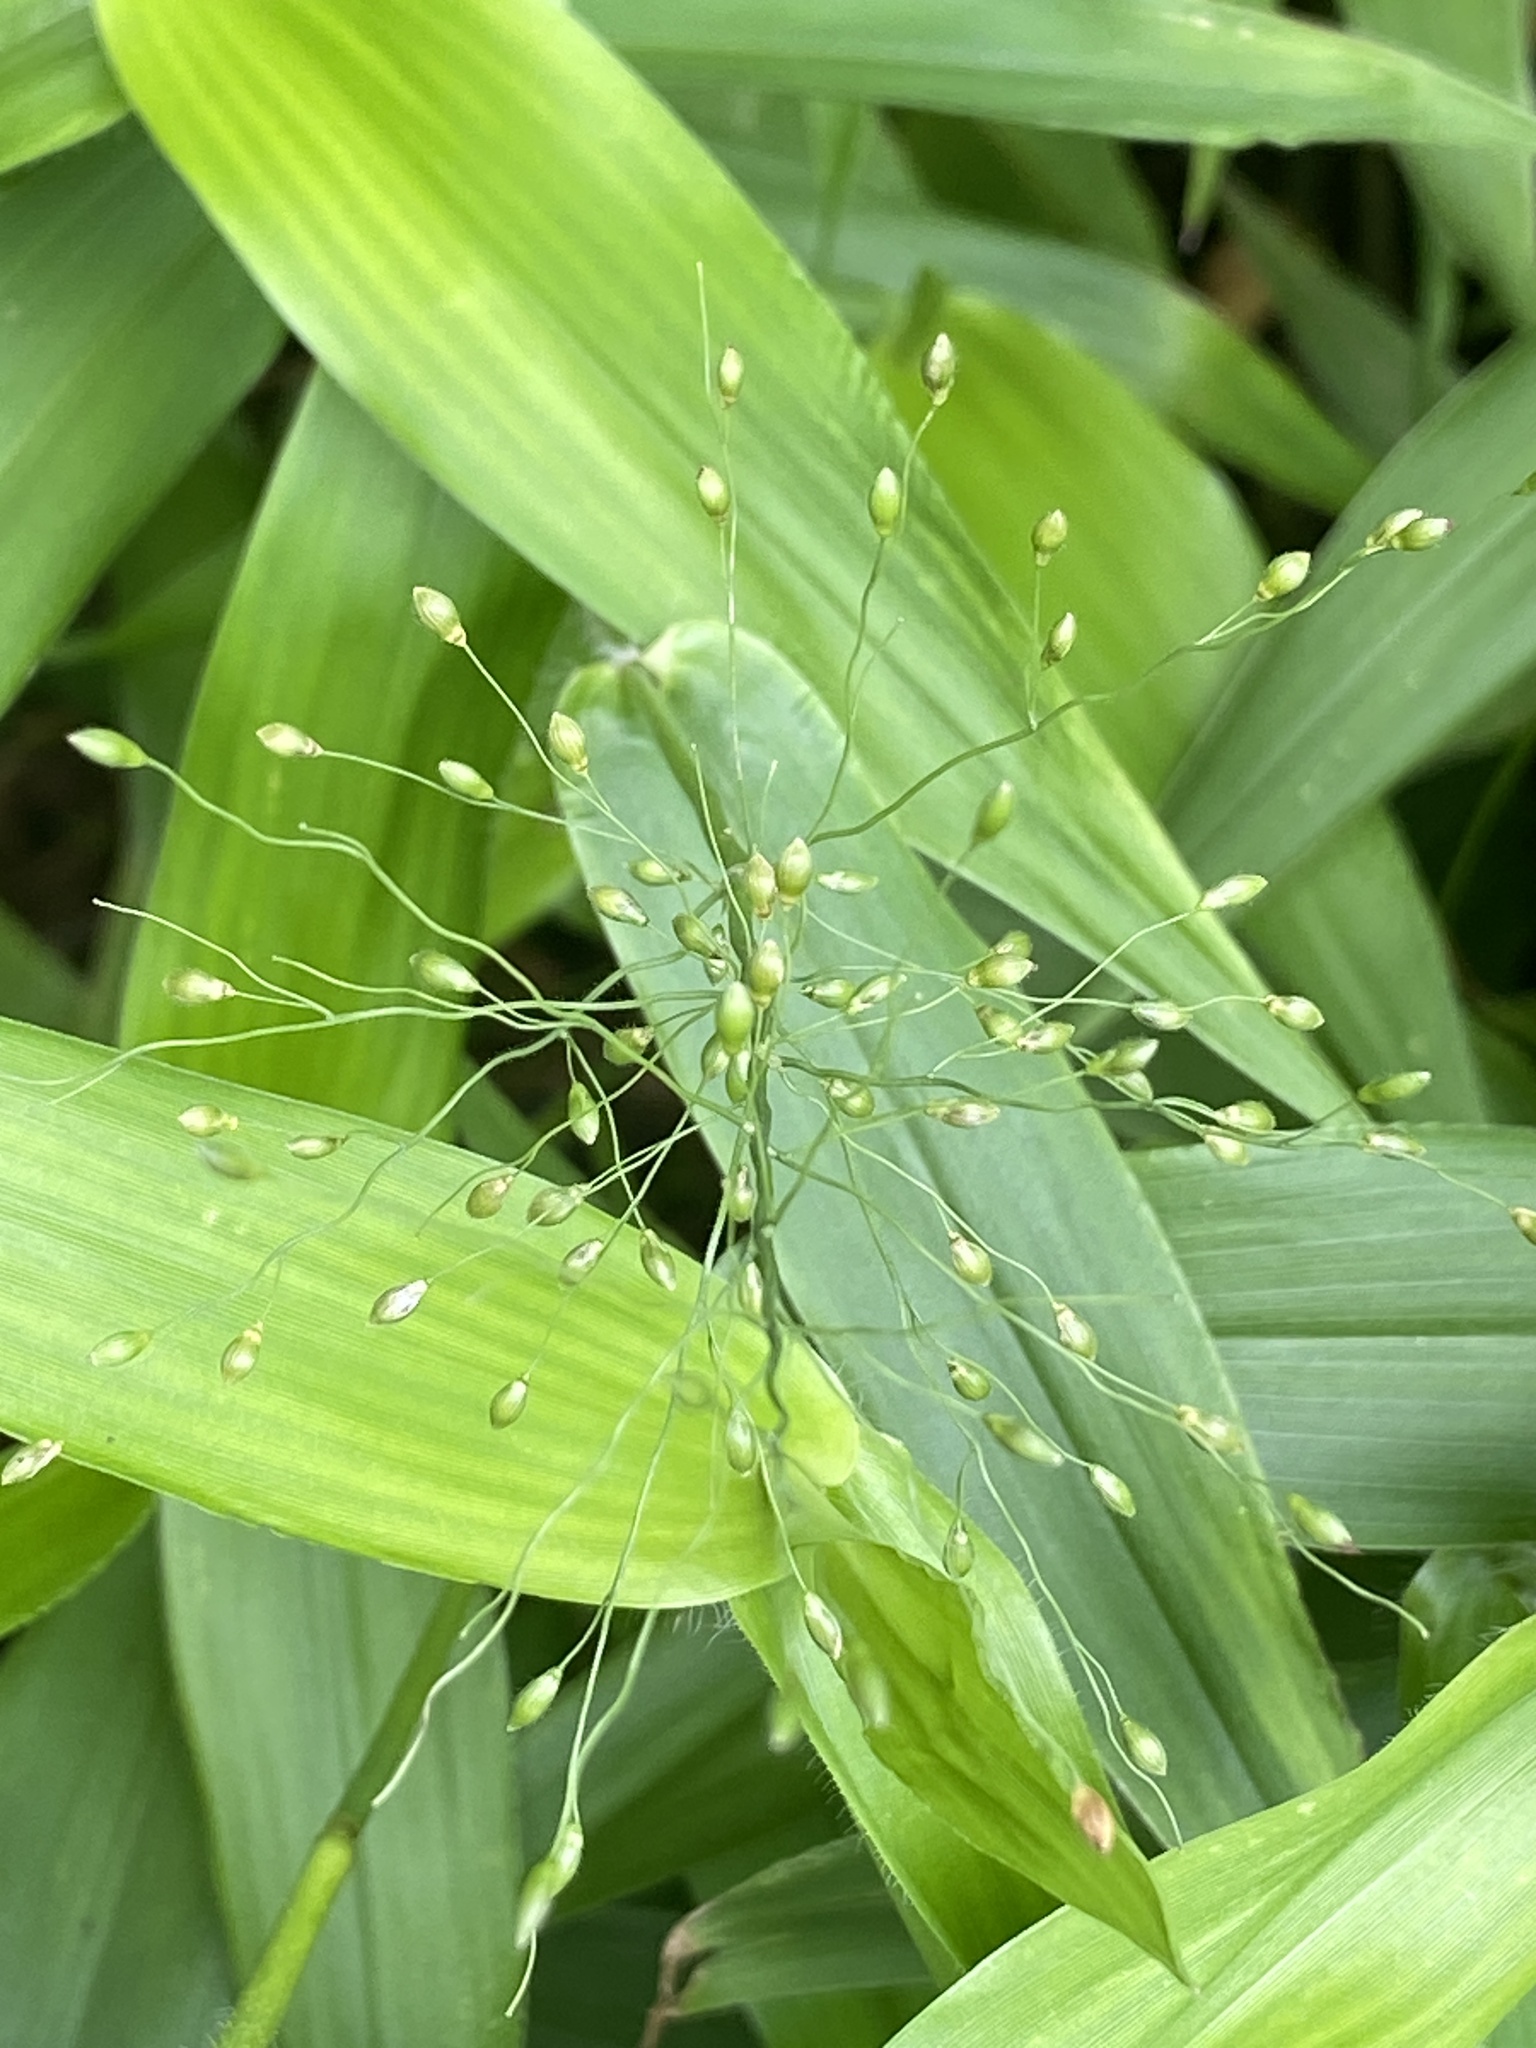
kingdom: Plantae
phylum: Tracheophyta
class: Liliopsida
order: Poales
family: Poaceae
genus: Dichanthelium
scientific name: Dichanthelium clandestinum
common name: Deer-tongue grass
